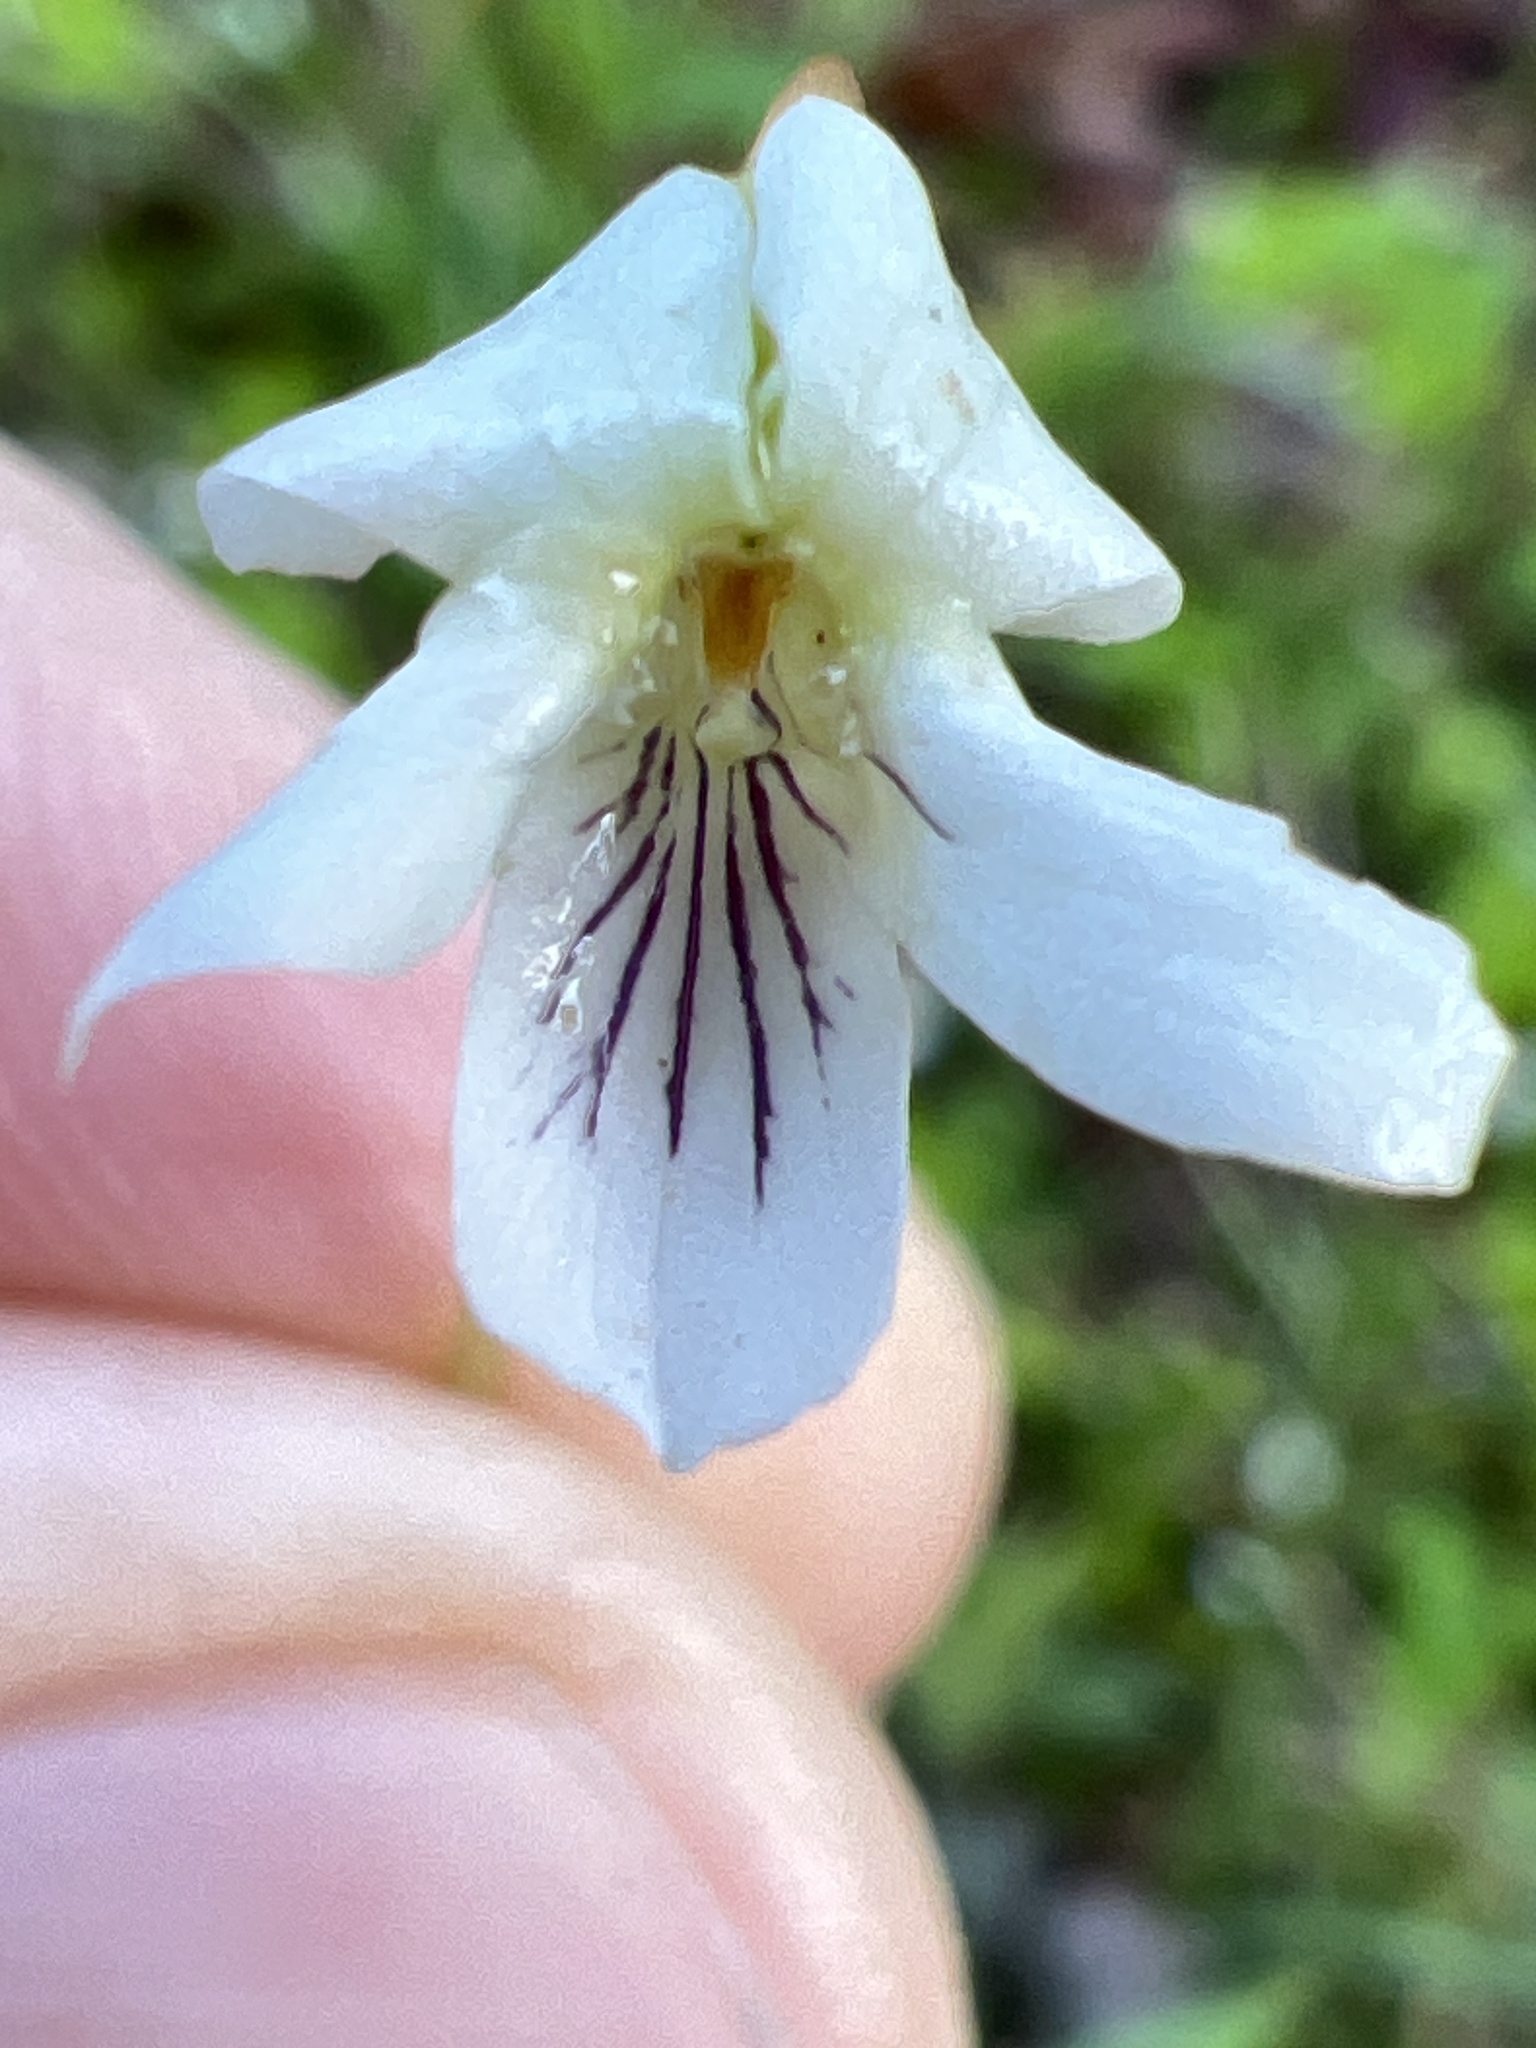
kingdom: Plantae
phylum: Tracheophyta
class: Magnoliopsida
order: Malpighiales
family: Violaceae
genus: Viola
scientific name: Viola primulifolia
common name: Primrose-leaf violet
